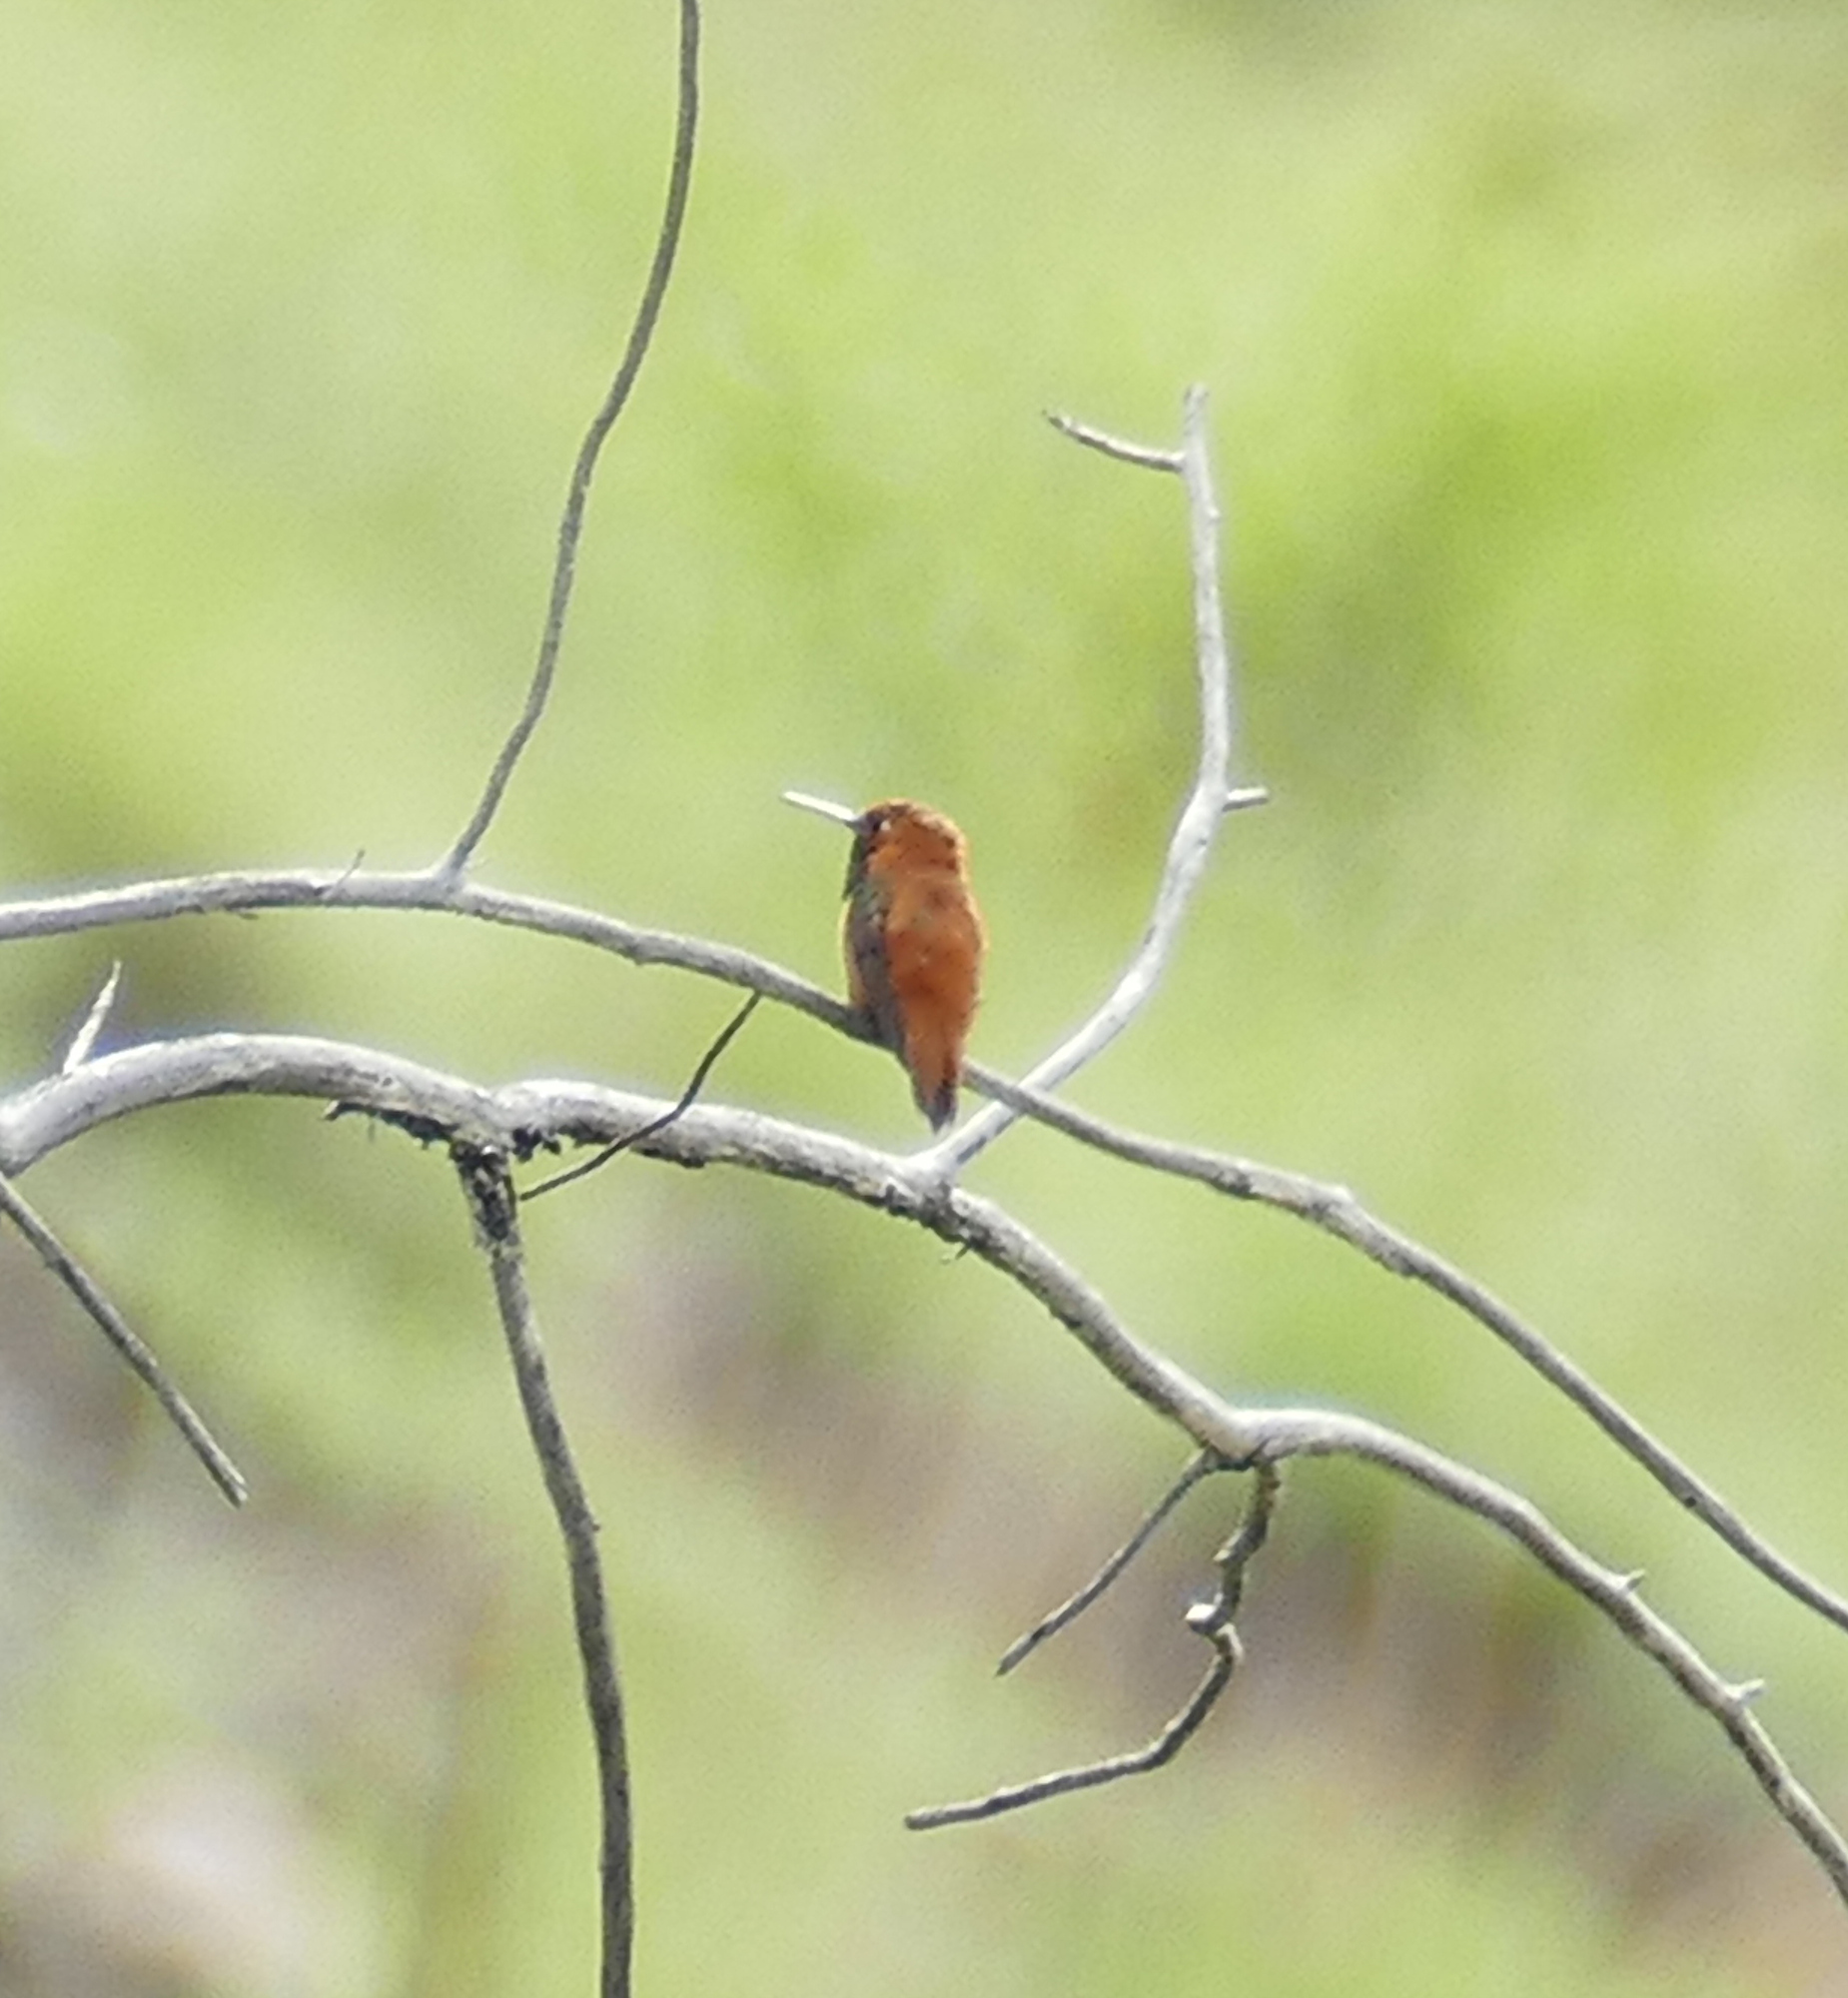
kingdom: Animalia
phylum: Chordata
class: Aves
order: Apodiformes
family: Trochilidae
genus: Selasphorus
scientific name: Selasphorus rufus
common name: Rufous hummingbird
